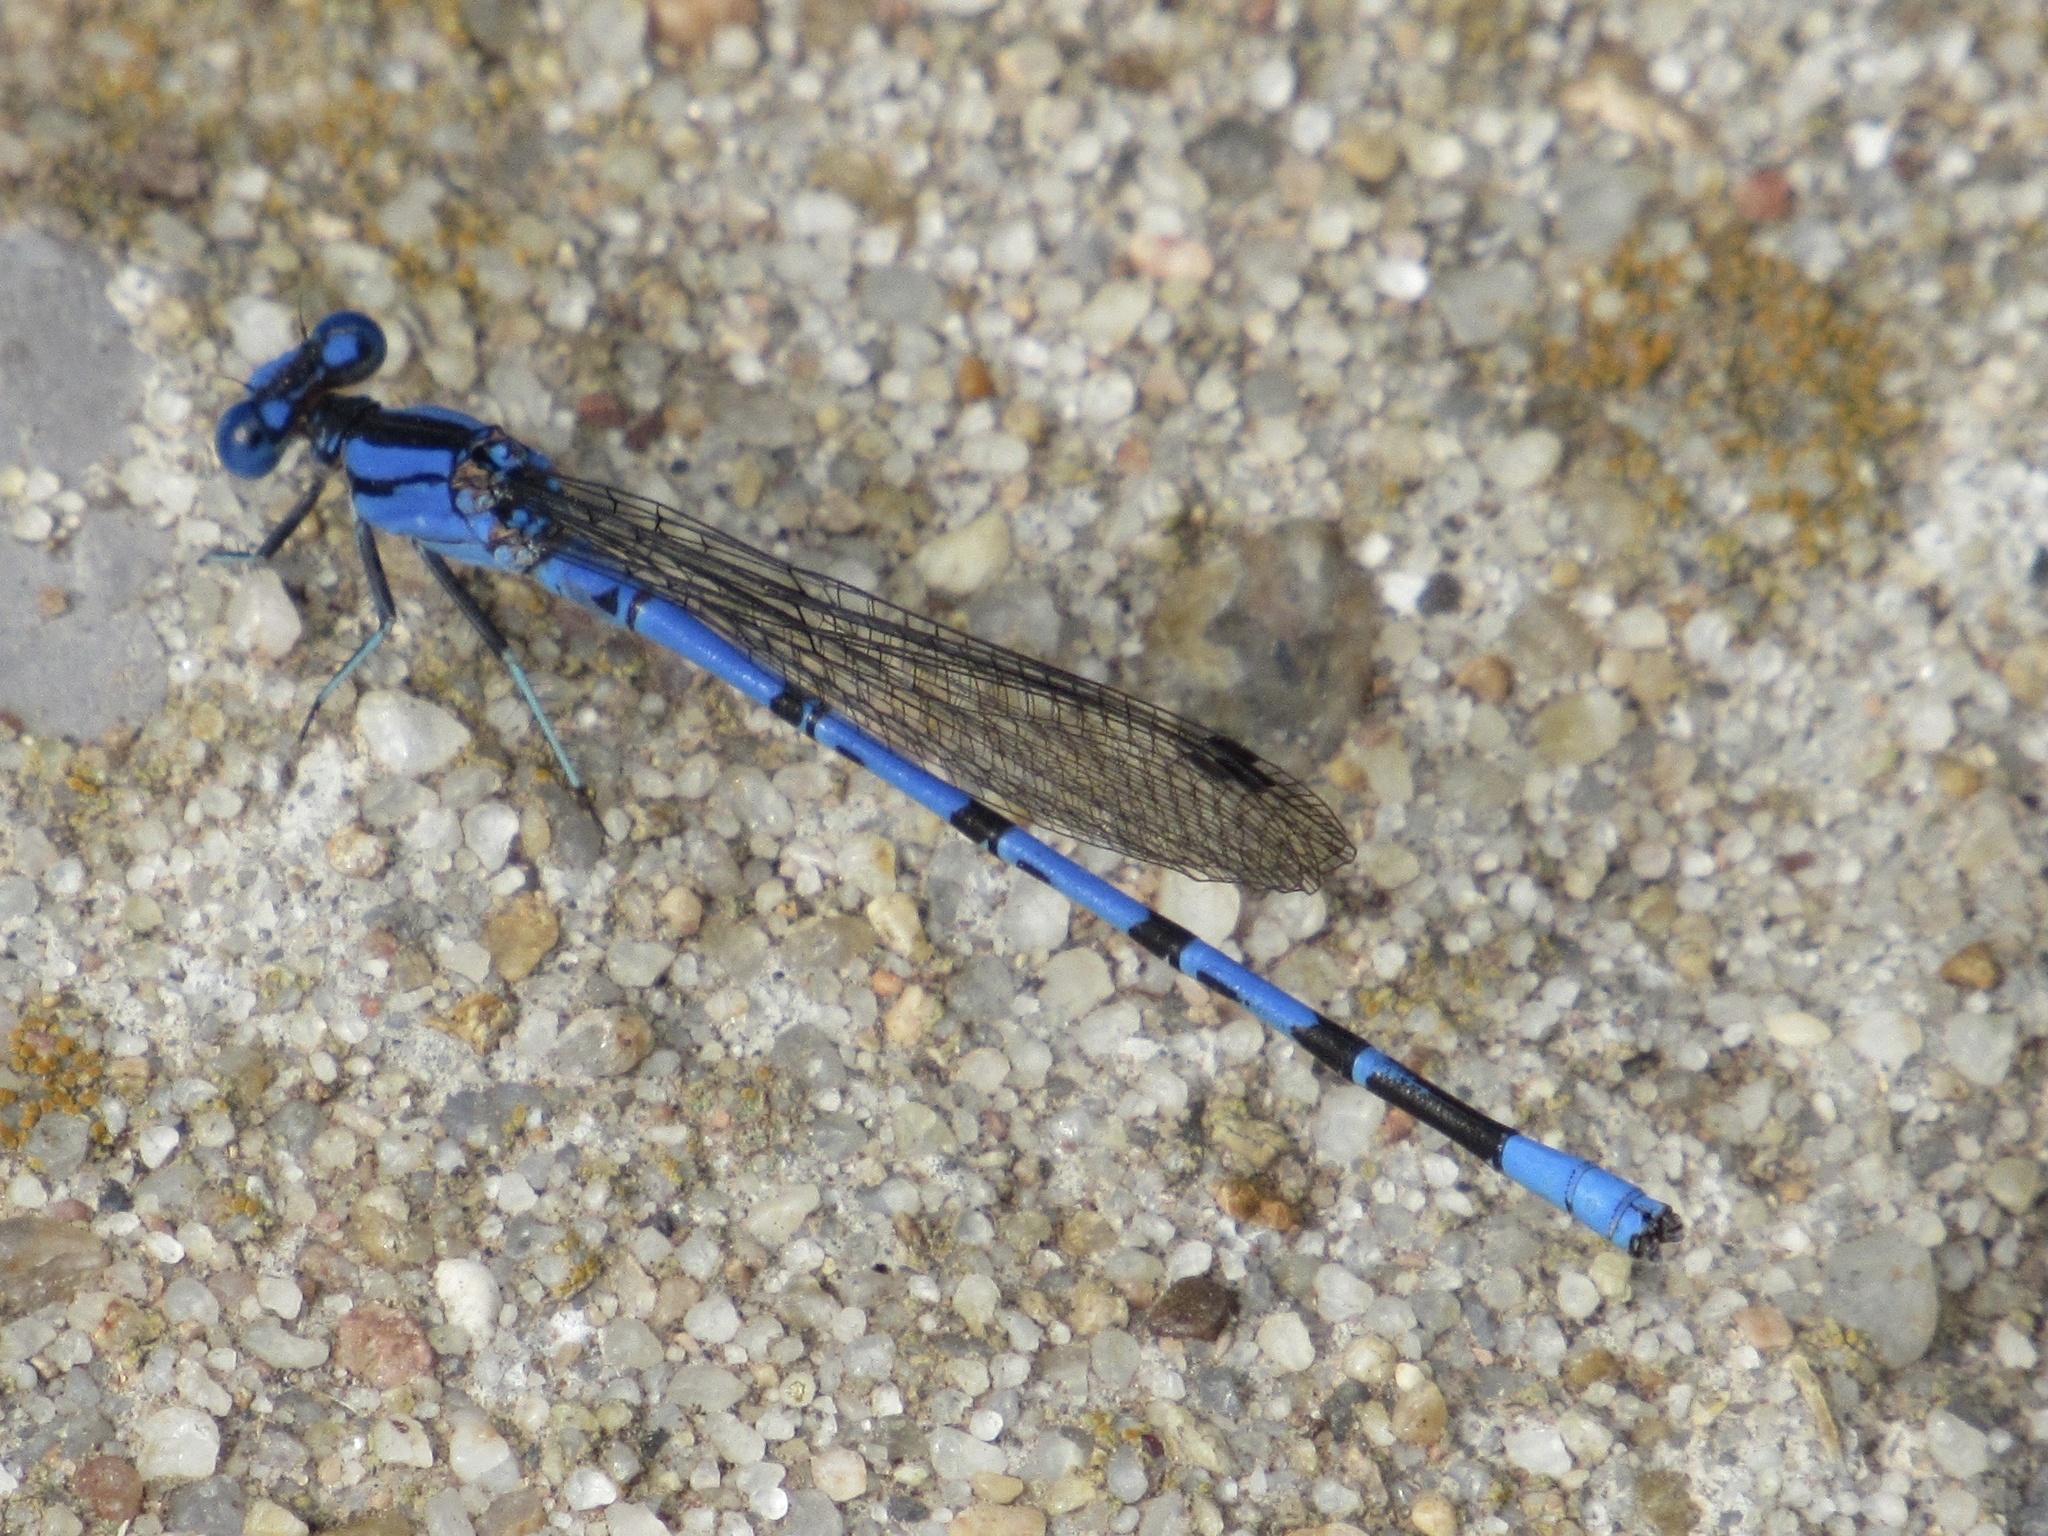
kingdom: Animalia
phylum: Arthropoda
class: Insecta
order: Odonata
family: Coenagrionidae
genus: Argia
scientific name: Argia funebris
